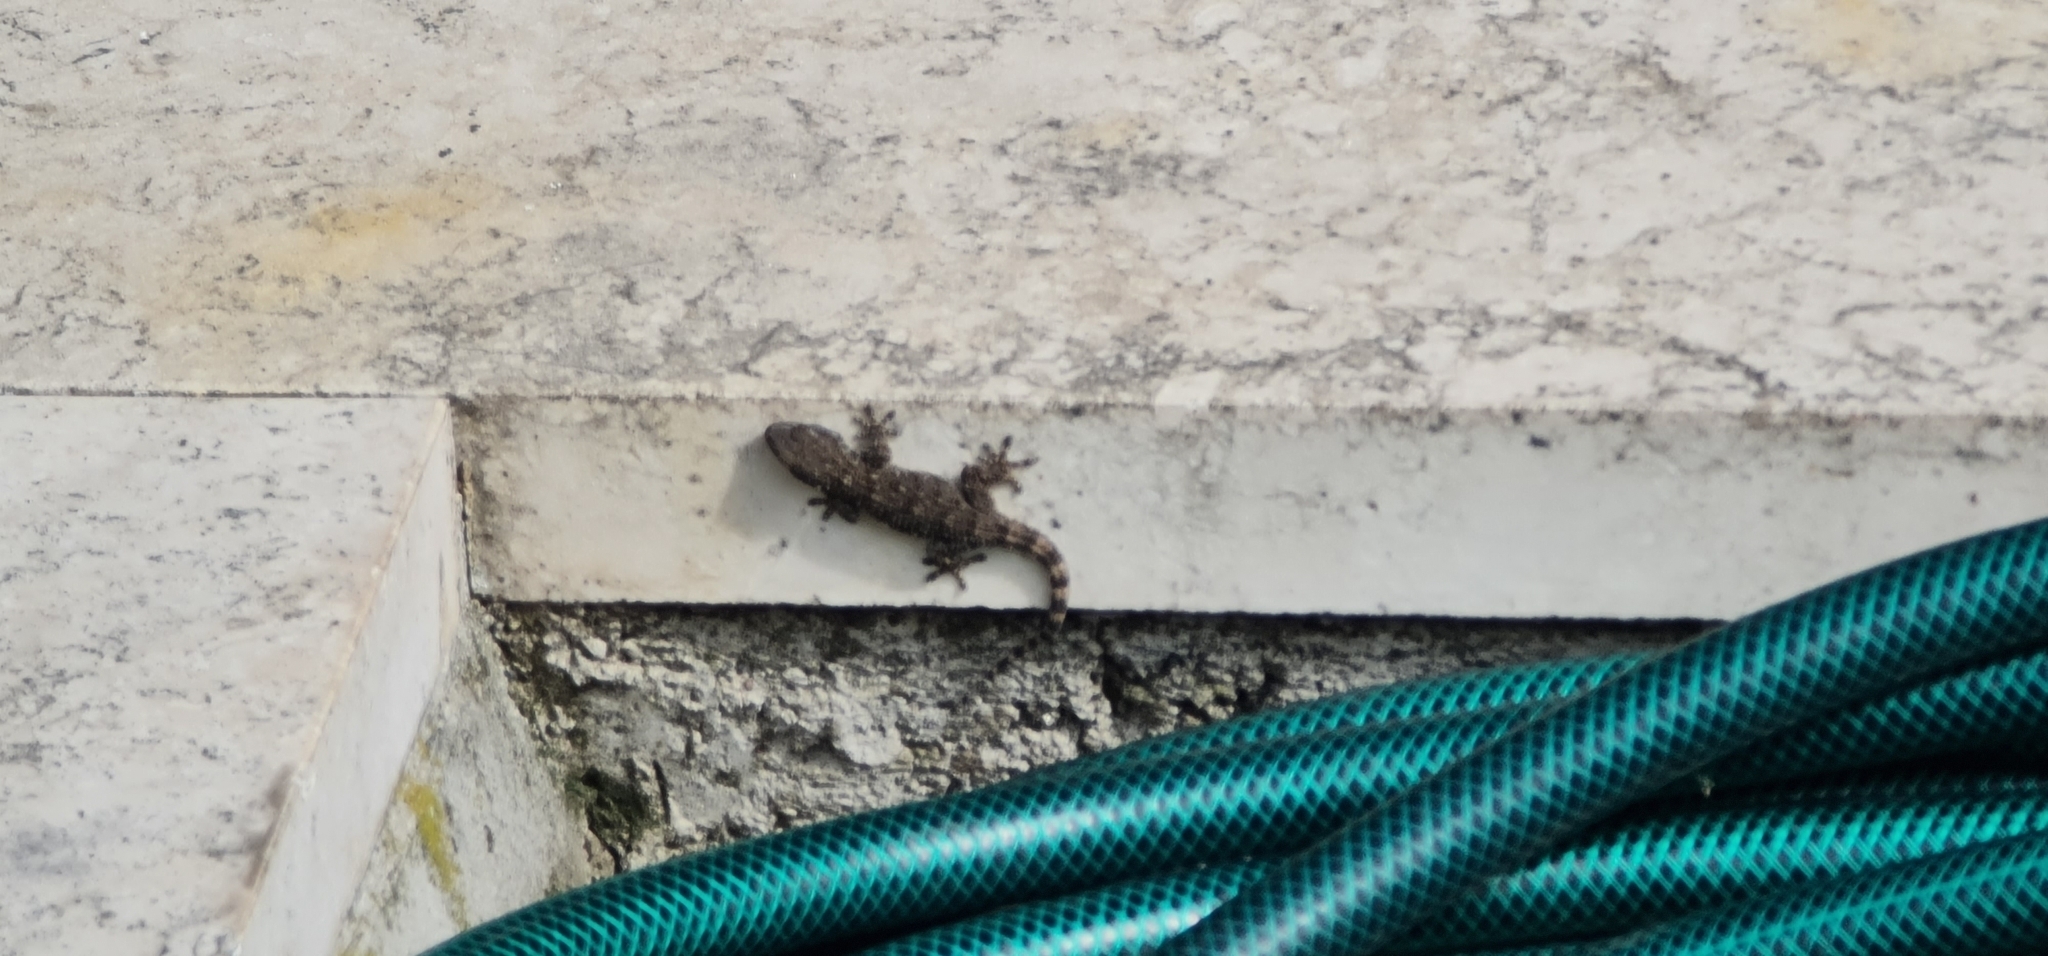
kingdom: Animalia
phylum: Chordata
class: Squamata
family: Phyllodactylidae
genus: Tarentola
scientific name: Tarentola mauritanica
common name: Moorish gecko
